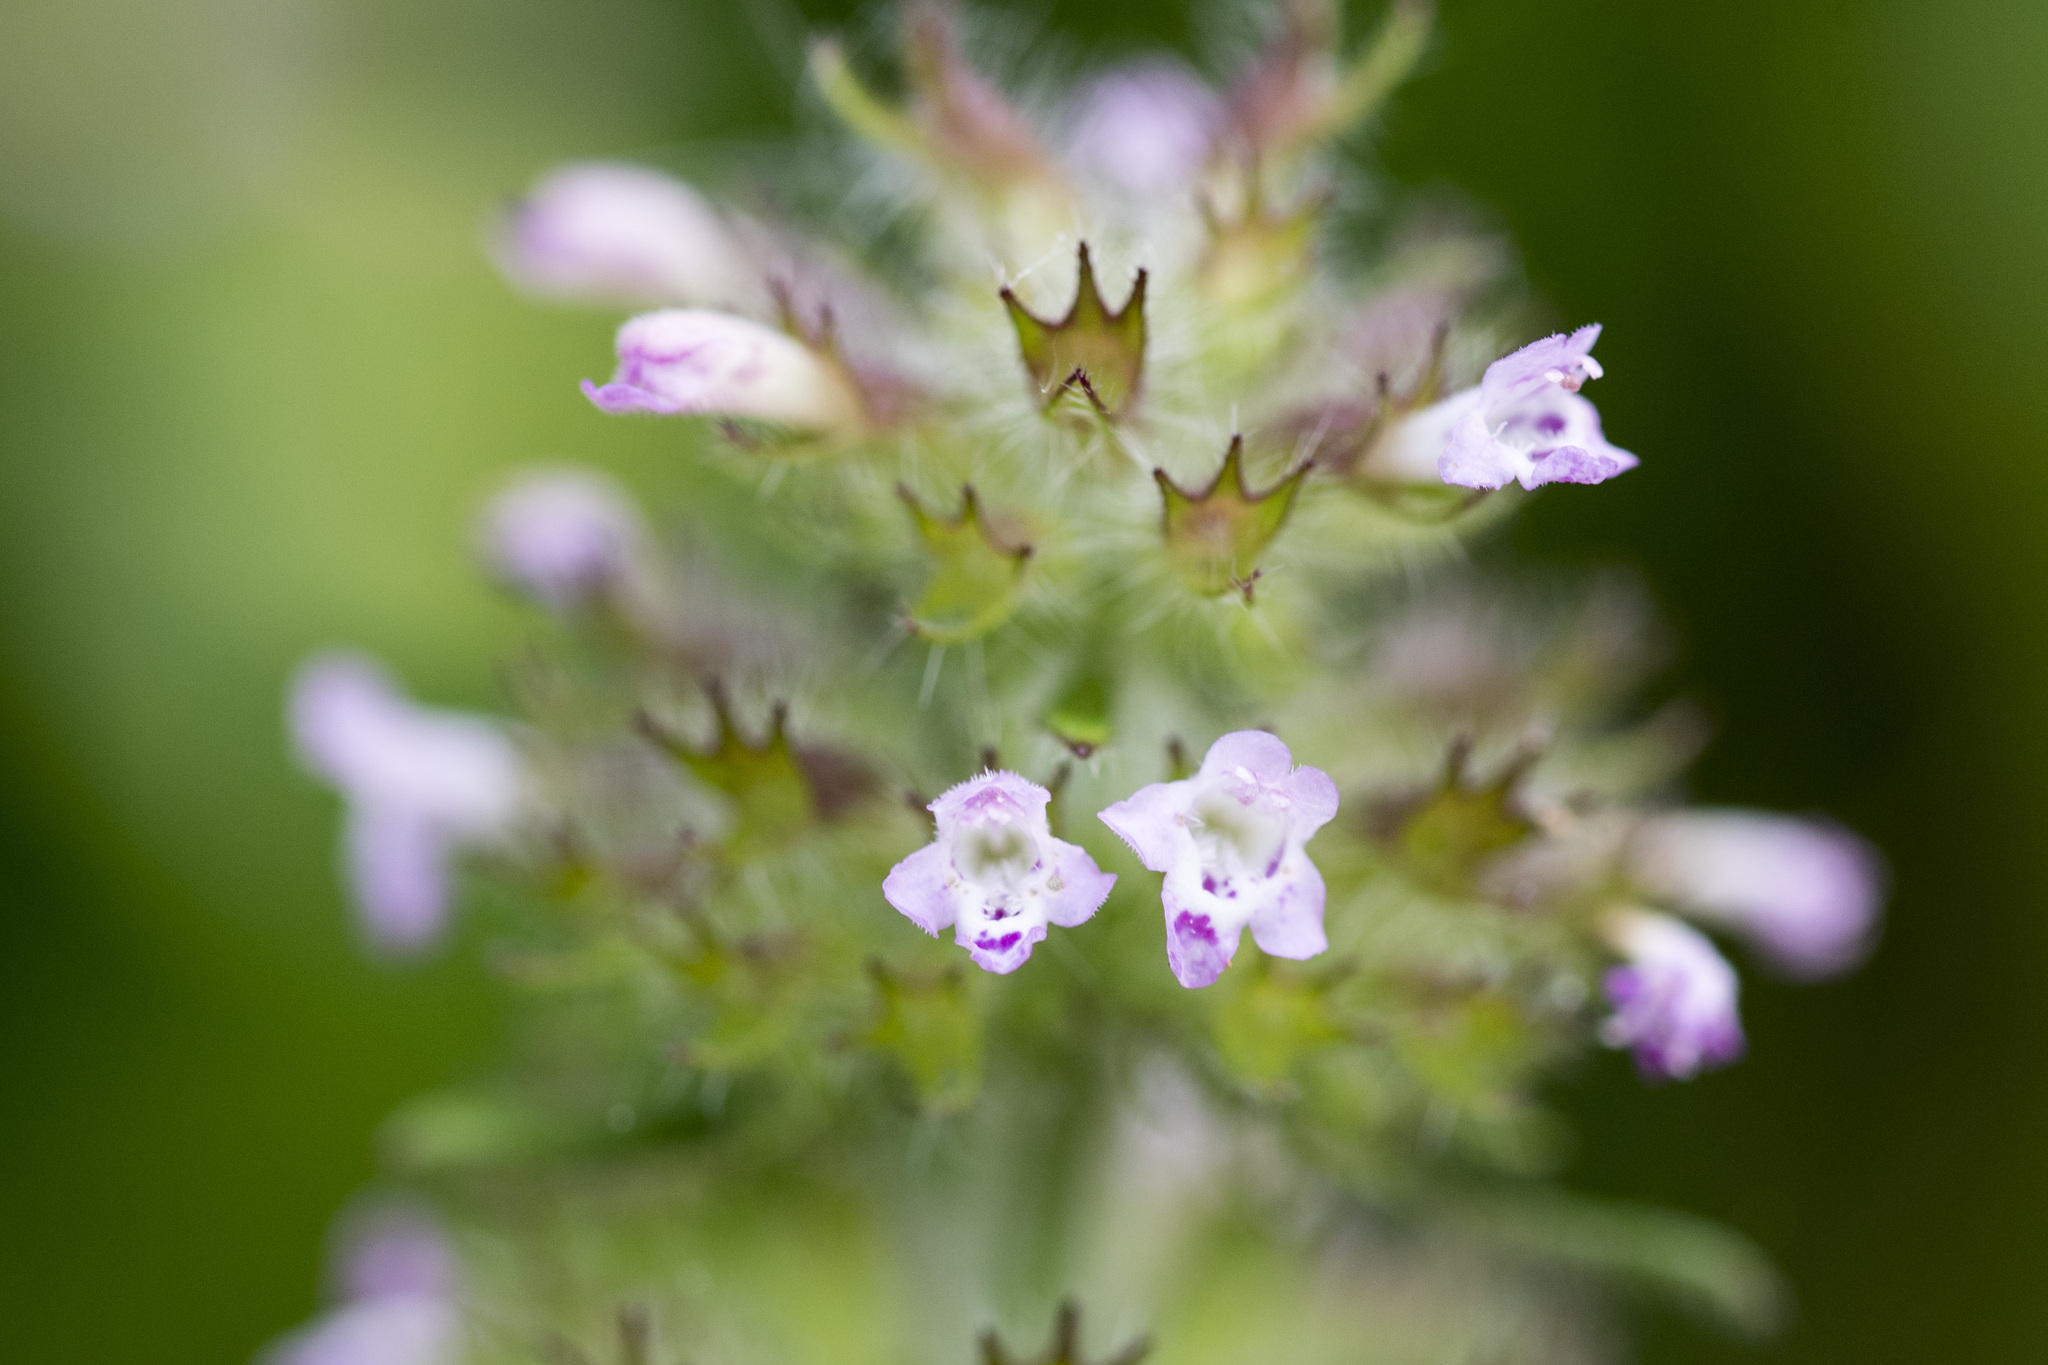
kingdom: Plantae
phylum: Tracheophyta
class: Magnoliopsida
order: Lamiales
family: Lamiaceae
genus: Clinopodium
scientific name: Clinopodium chinense
